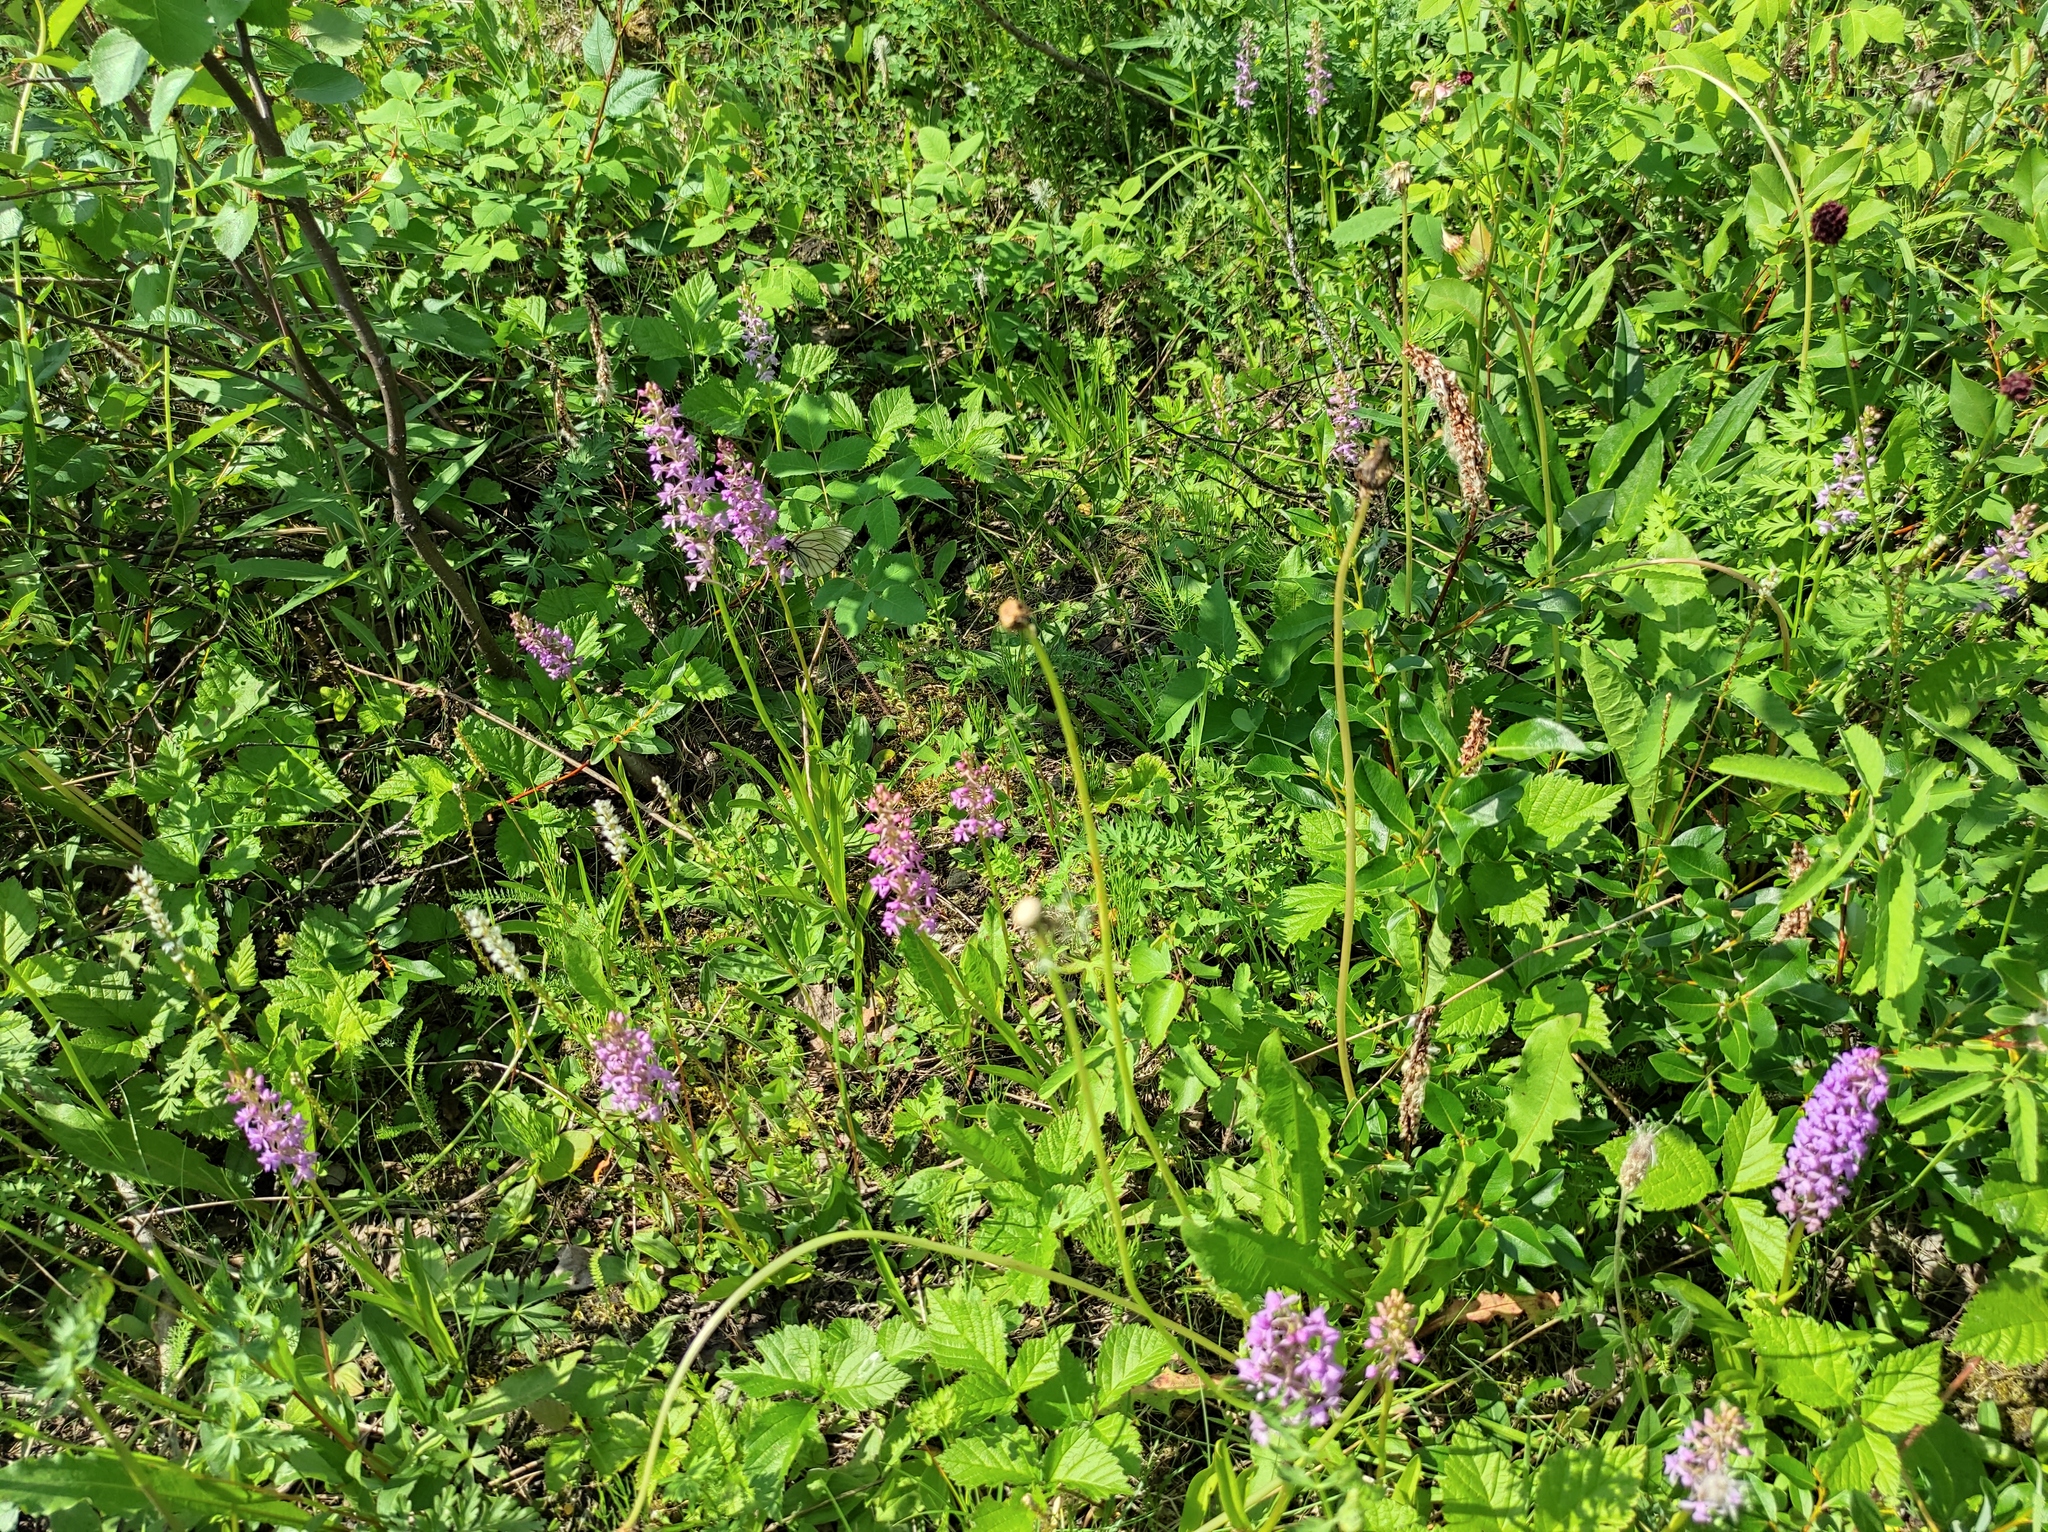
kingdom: Plantae
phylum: Tracheophyta
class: Liliopsida
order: Asparagales
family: Orchidaceae
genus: Gymnadenia
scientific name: Gymnadenia conopsea
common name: Fragrant orchid
